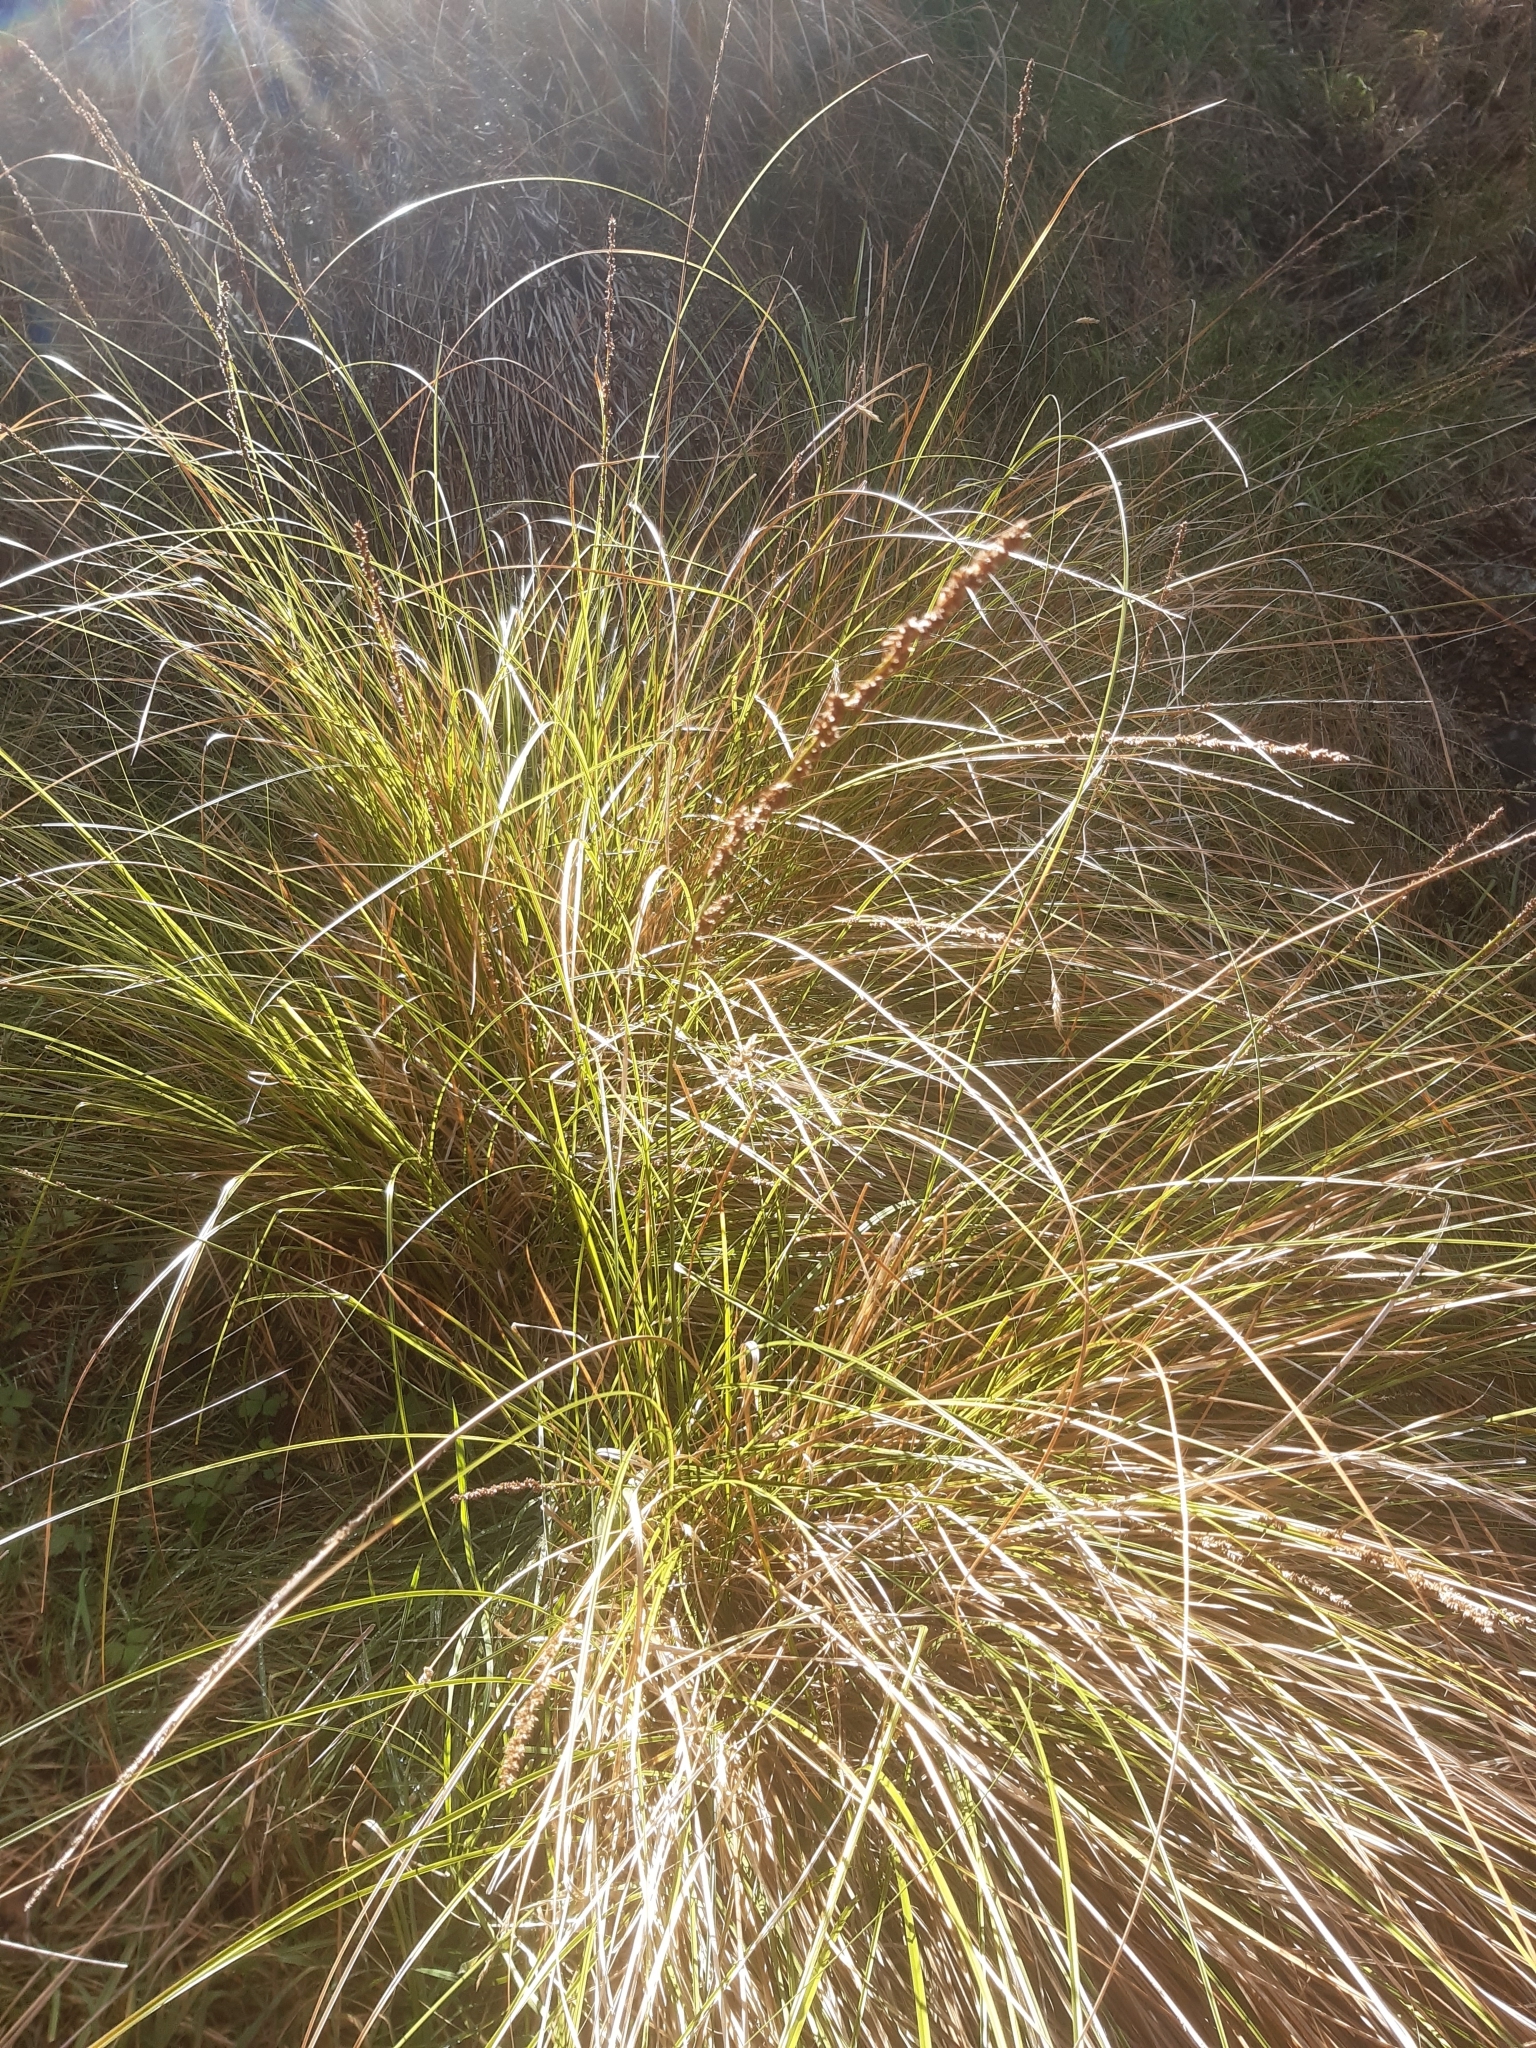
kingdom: Plantae
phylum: Tracheophyta
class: Liliopsida
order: Poales
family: Cyperaceae
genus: Carex
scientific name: Carex virgata
